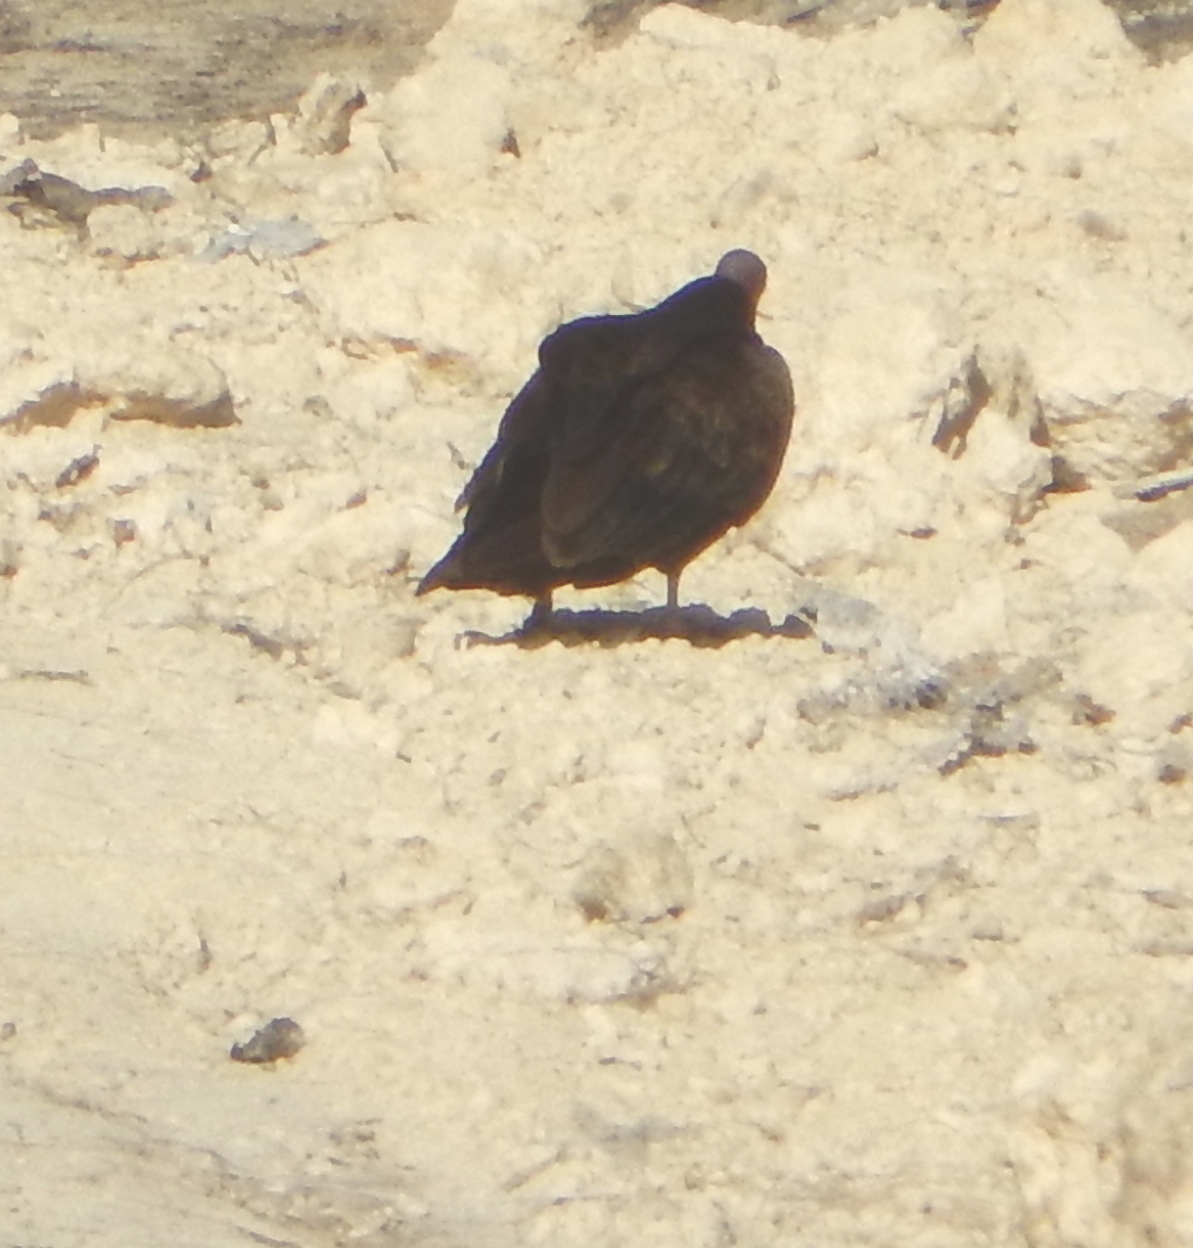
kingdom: Animalia
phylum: Chordata
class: Aves
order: Accipitriformes
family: Cathartidae
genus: Cathartes
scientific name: Cathartes aura
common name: Turkey vulture
